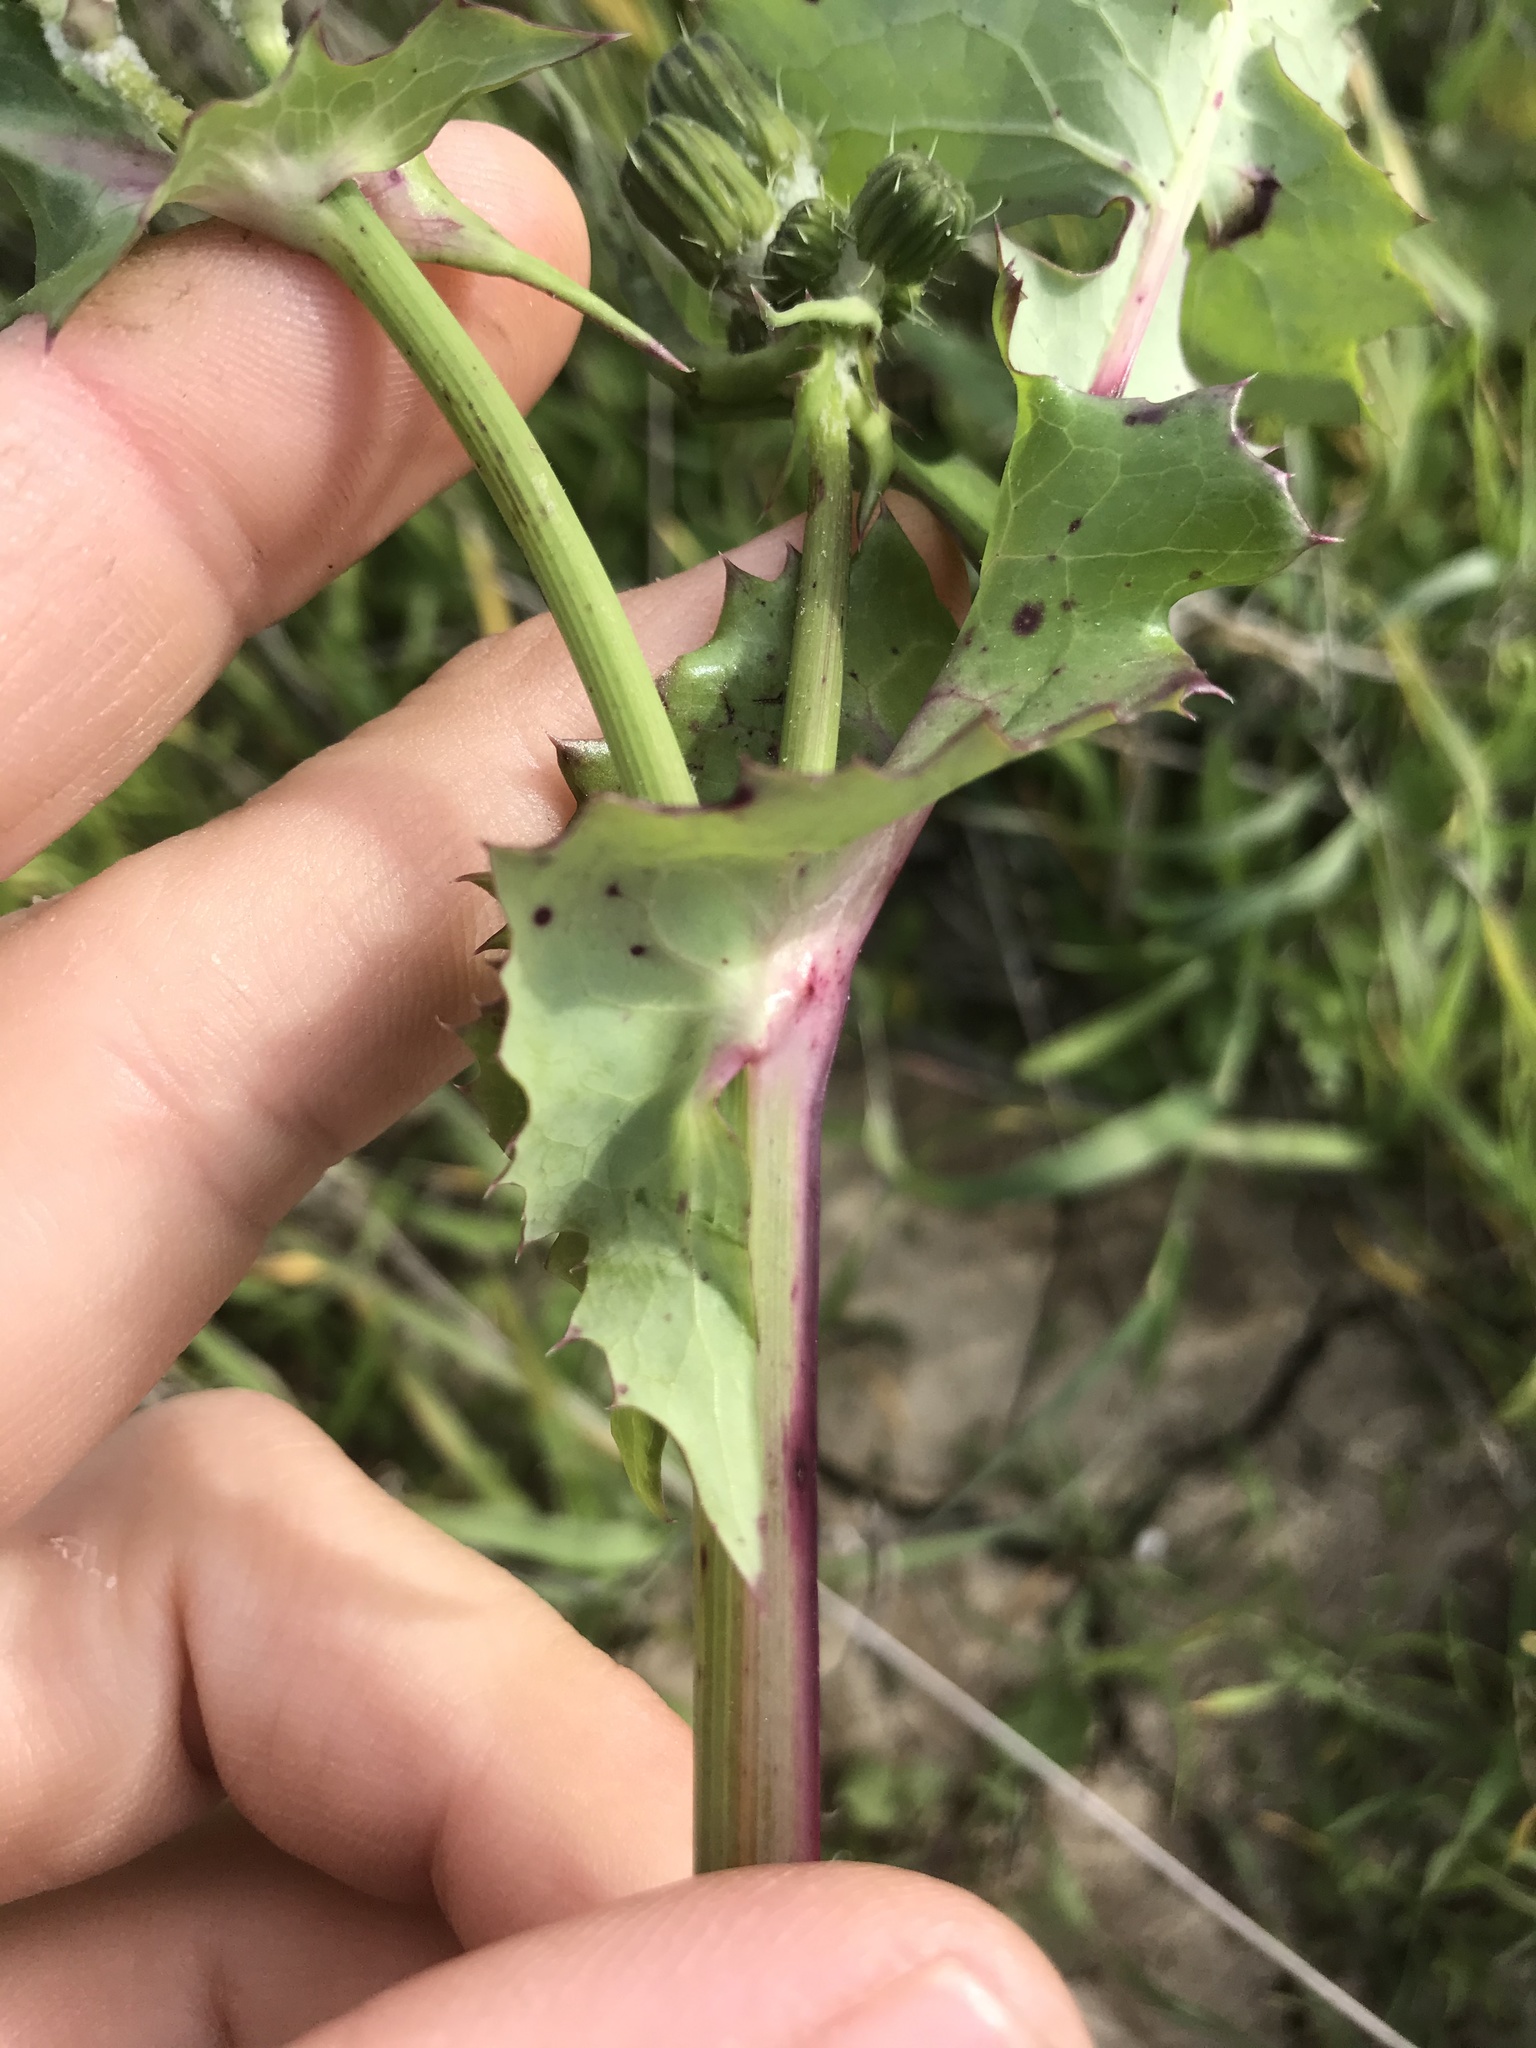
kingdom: Plantae
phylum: Tracheophyta
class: Magnoliopsida
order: Asterales
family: Asteraceae
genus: Sonchus
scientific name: Sonchus oleraceus
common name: Common sowthistle
